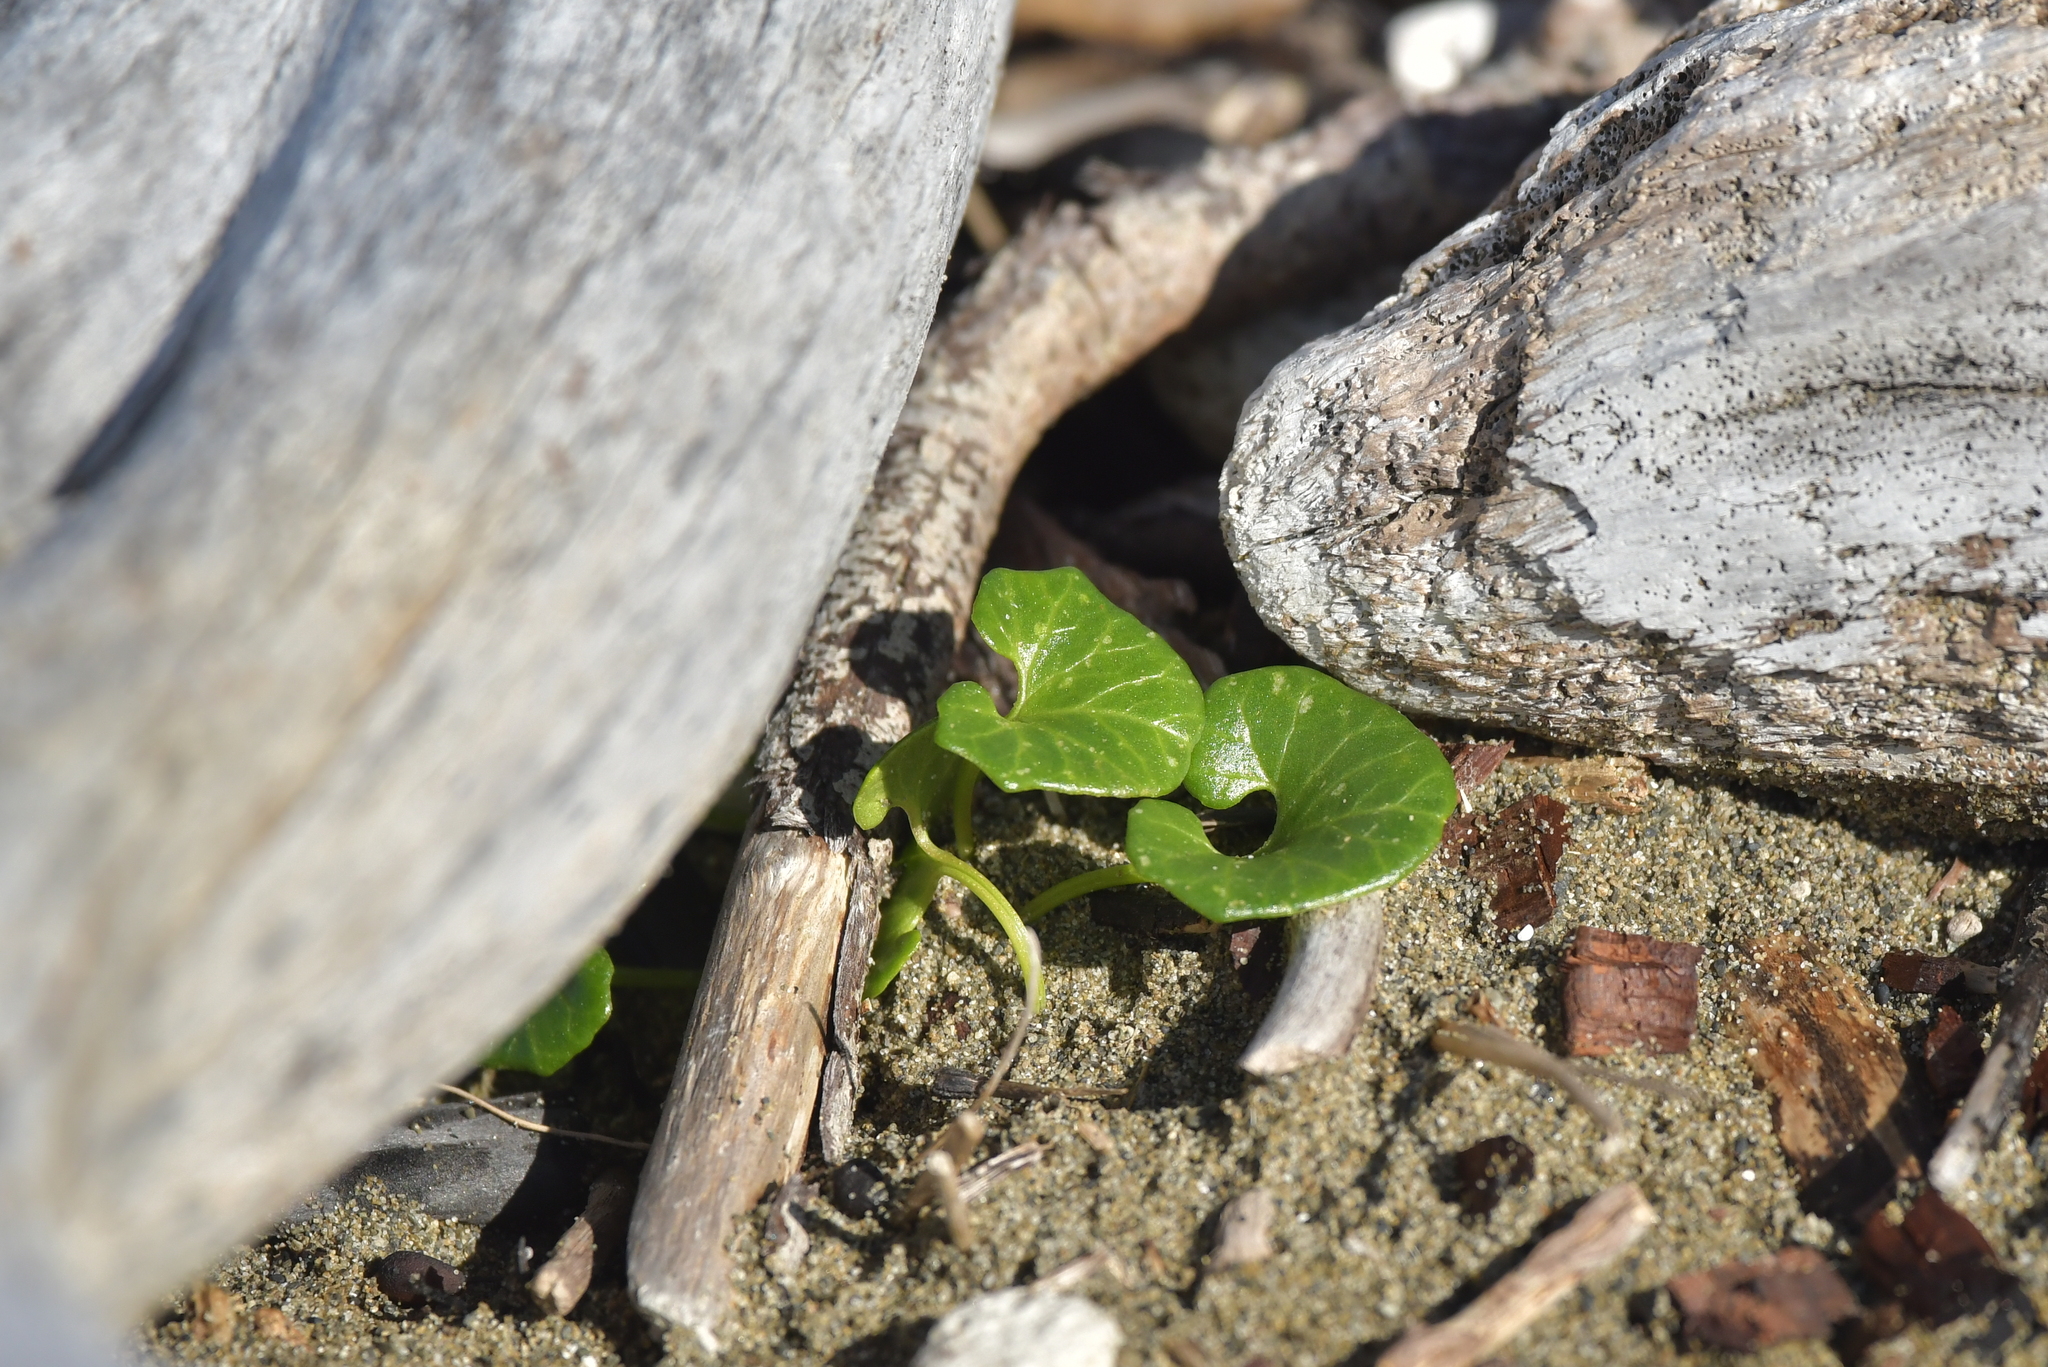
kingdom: Plantae
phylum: Tracheophyta
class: Magnoliopsida
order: Solanales
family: Convolvulaceae
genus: Calystegia
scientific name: Calystegia soldanella
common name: Sea bindweed
